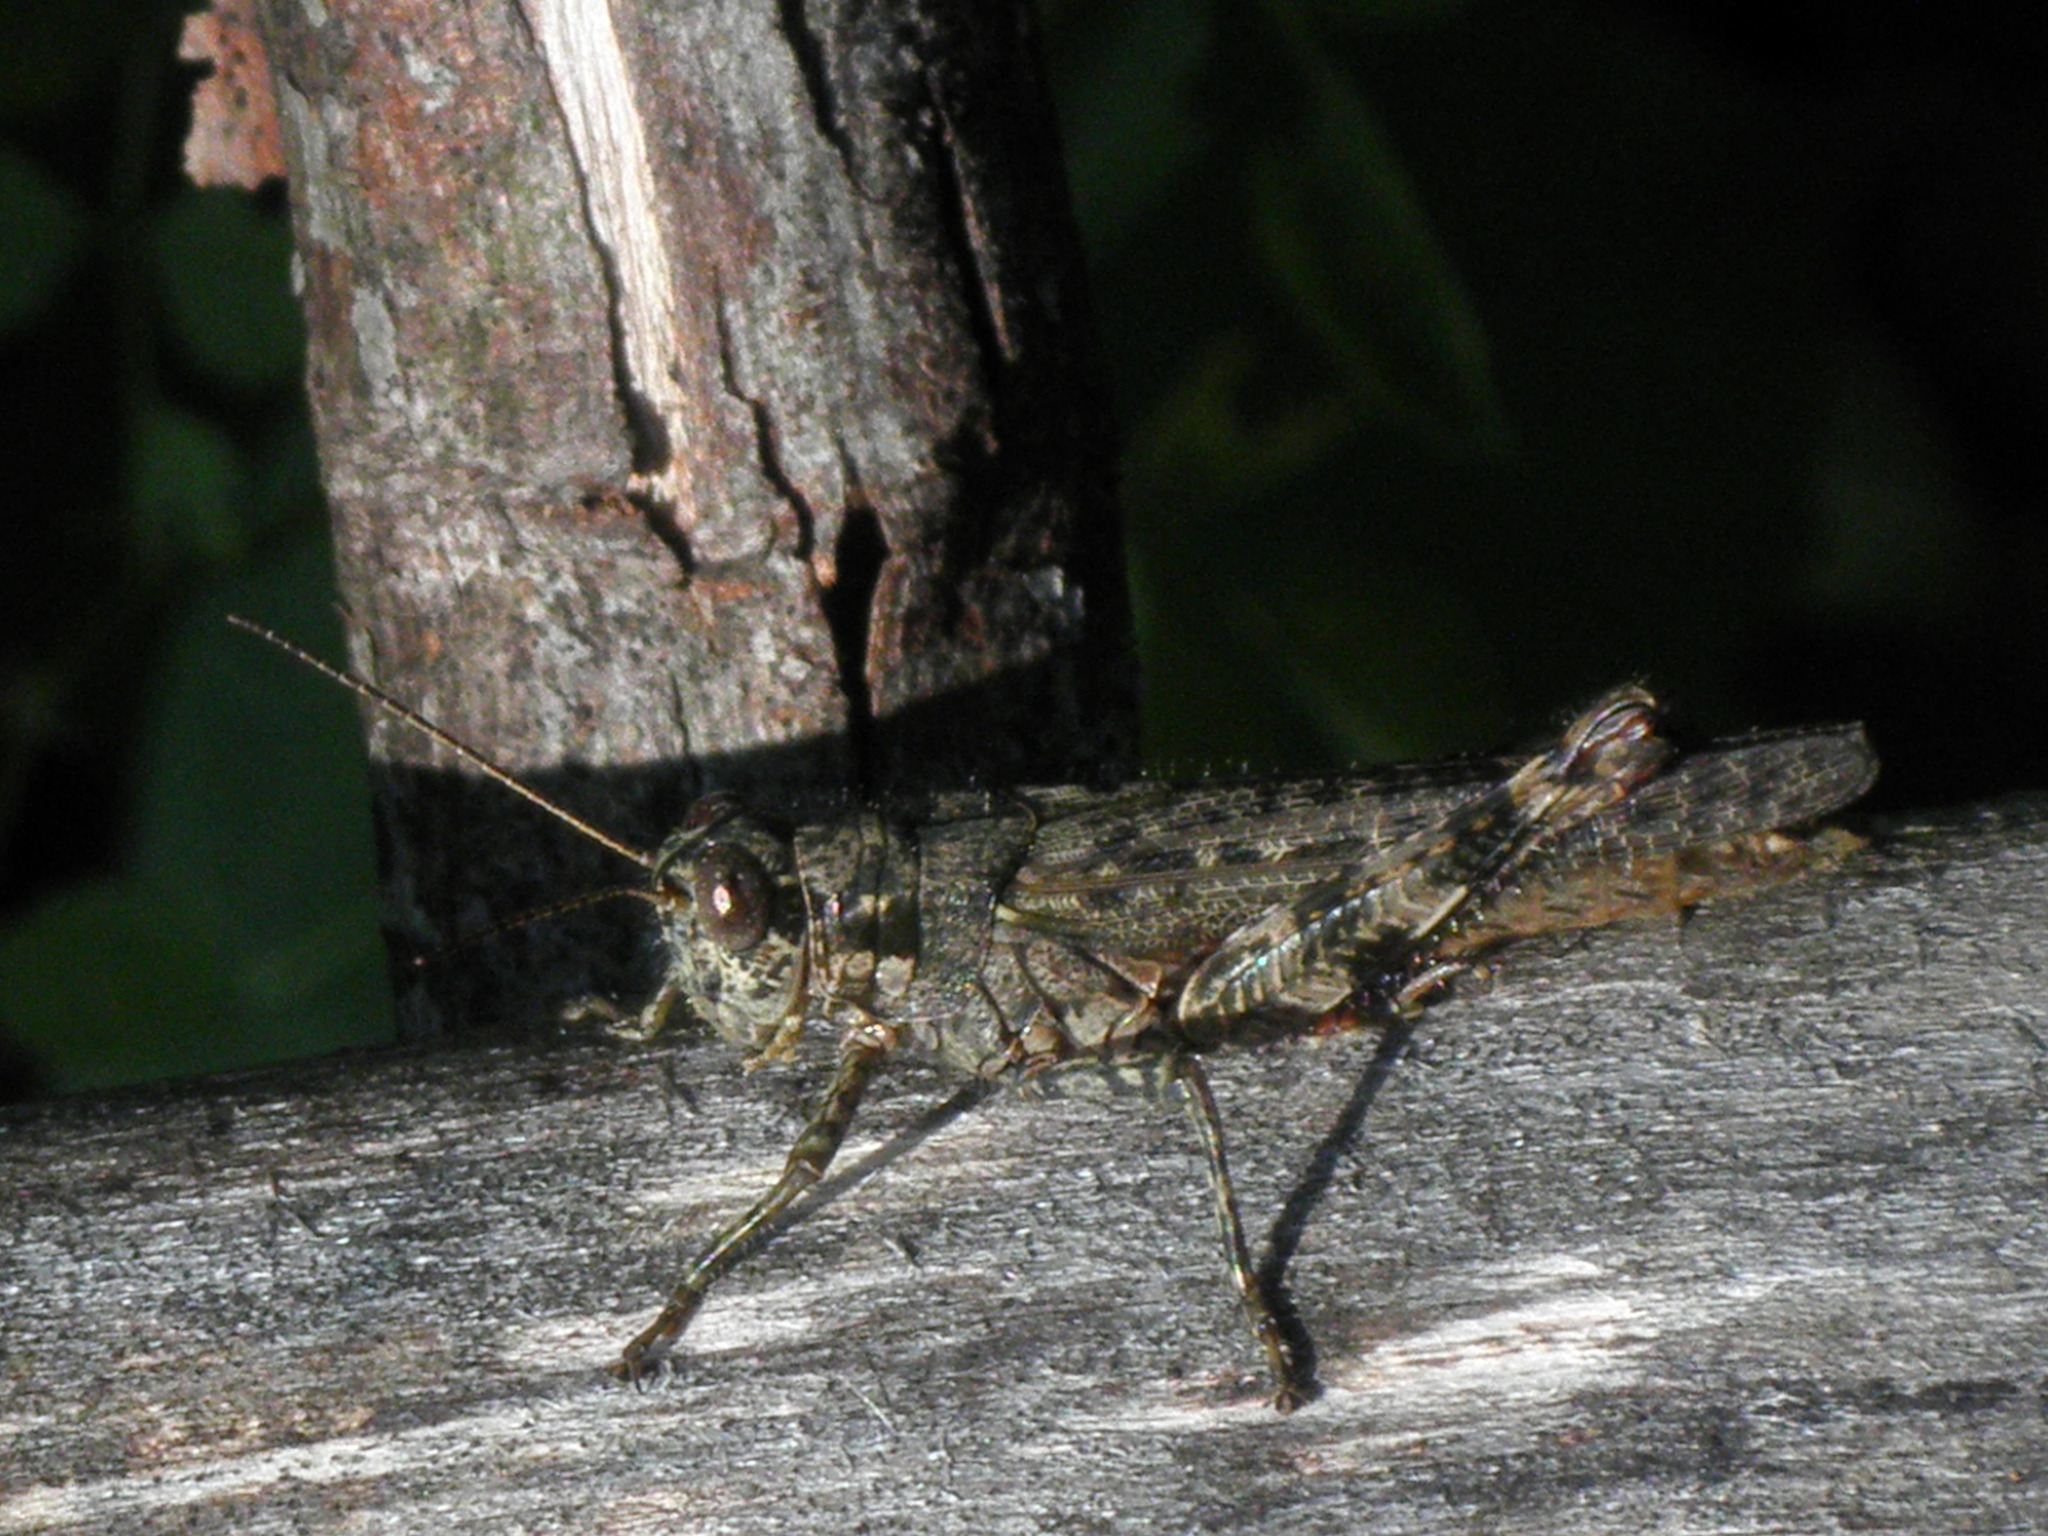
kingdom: Animalia
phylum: Arthropoda
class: Insecta
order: Orthoptera
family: Acrididae
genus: Melanoplus
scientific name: Melanoplus punctulatus
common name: Pine-tree spur-throat grasshopper
